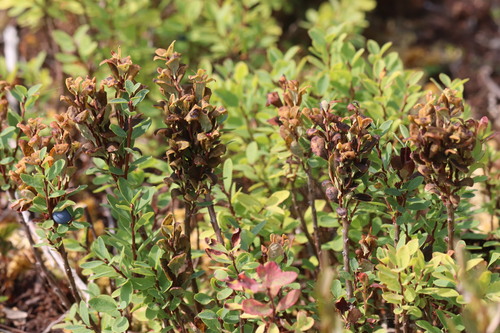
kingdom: Fungi
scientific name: Fungi
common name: Fungi
